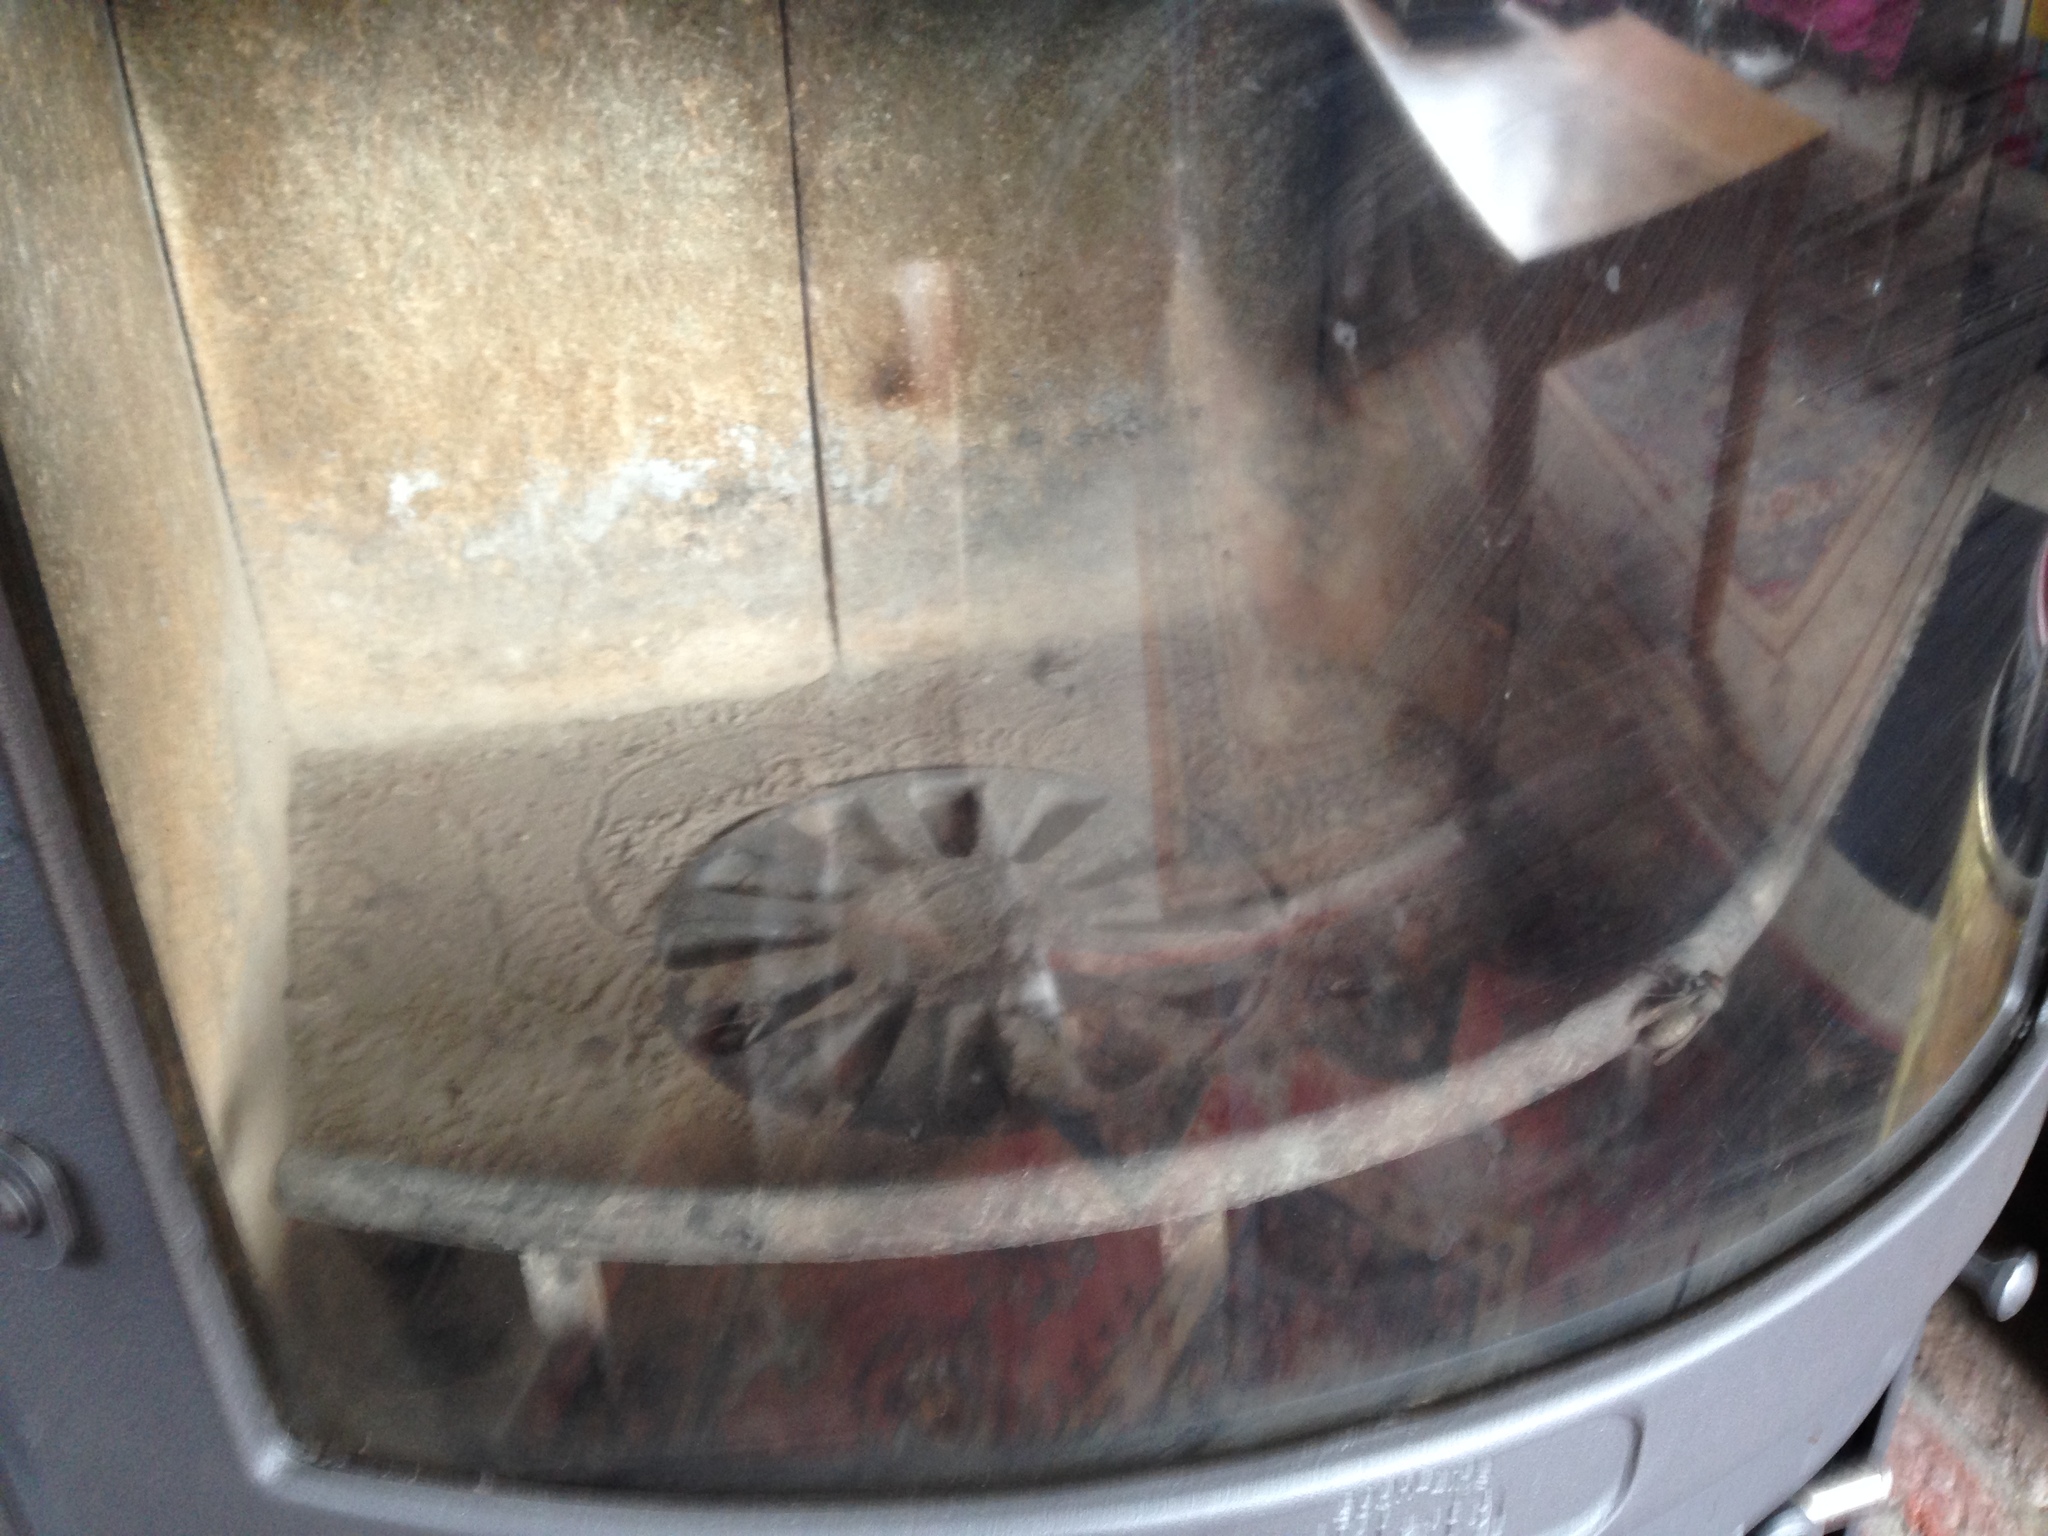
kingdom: Animalia
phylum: Arthropoda
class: Insecta
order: Hymenoptera
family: Vespidae
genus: Vespa
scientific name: Vespa crabro
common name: Hornet
